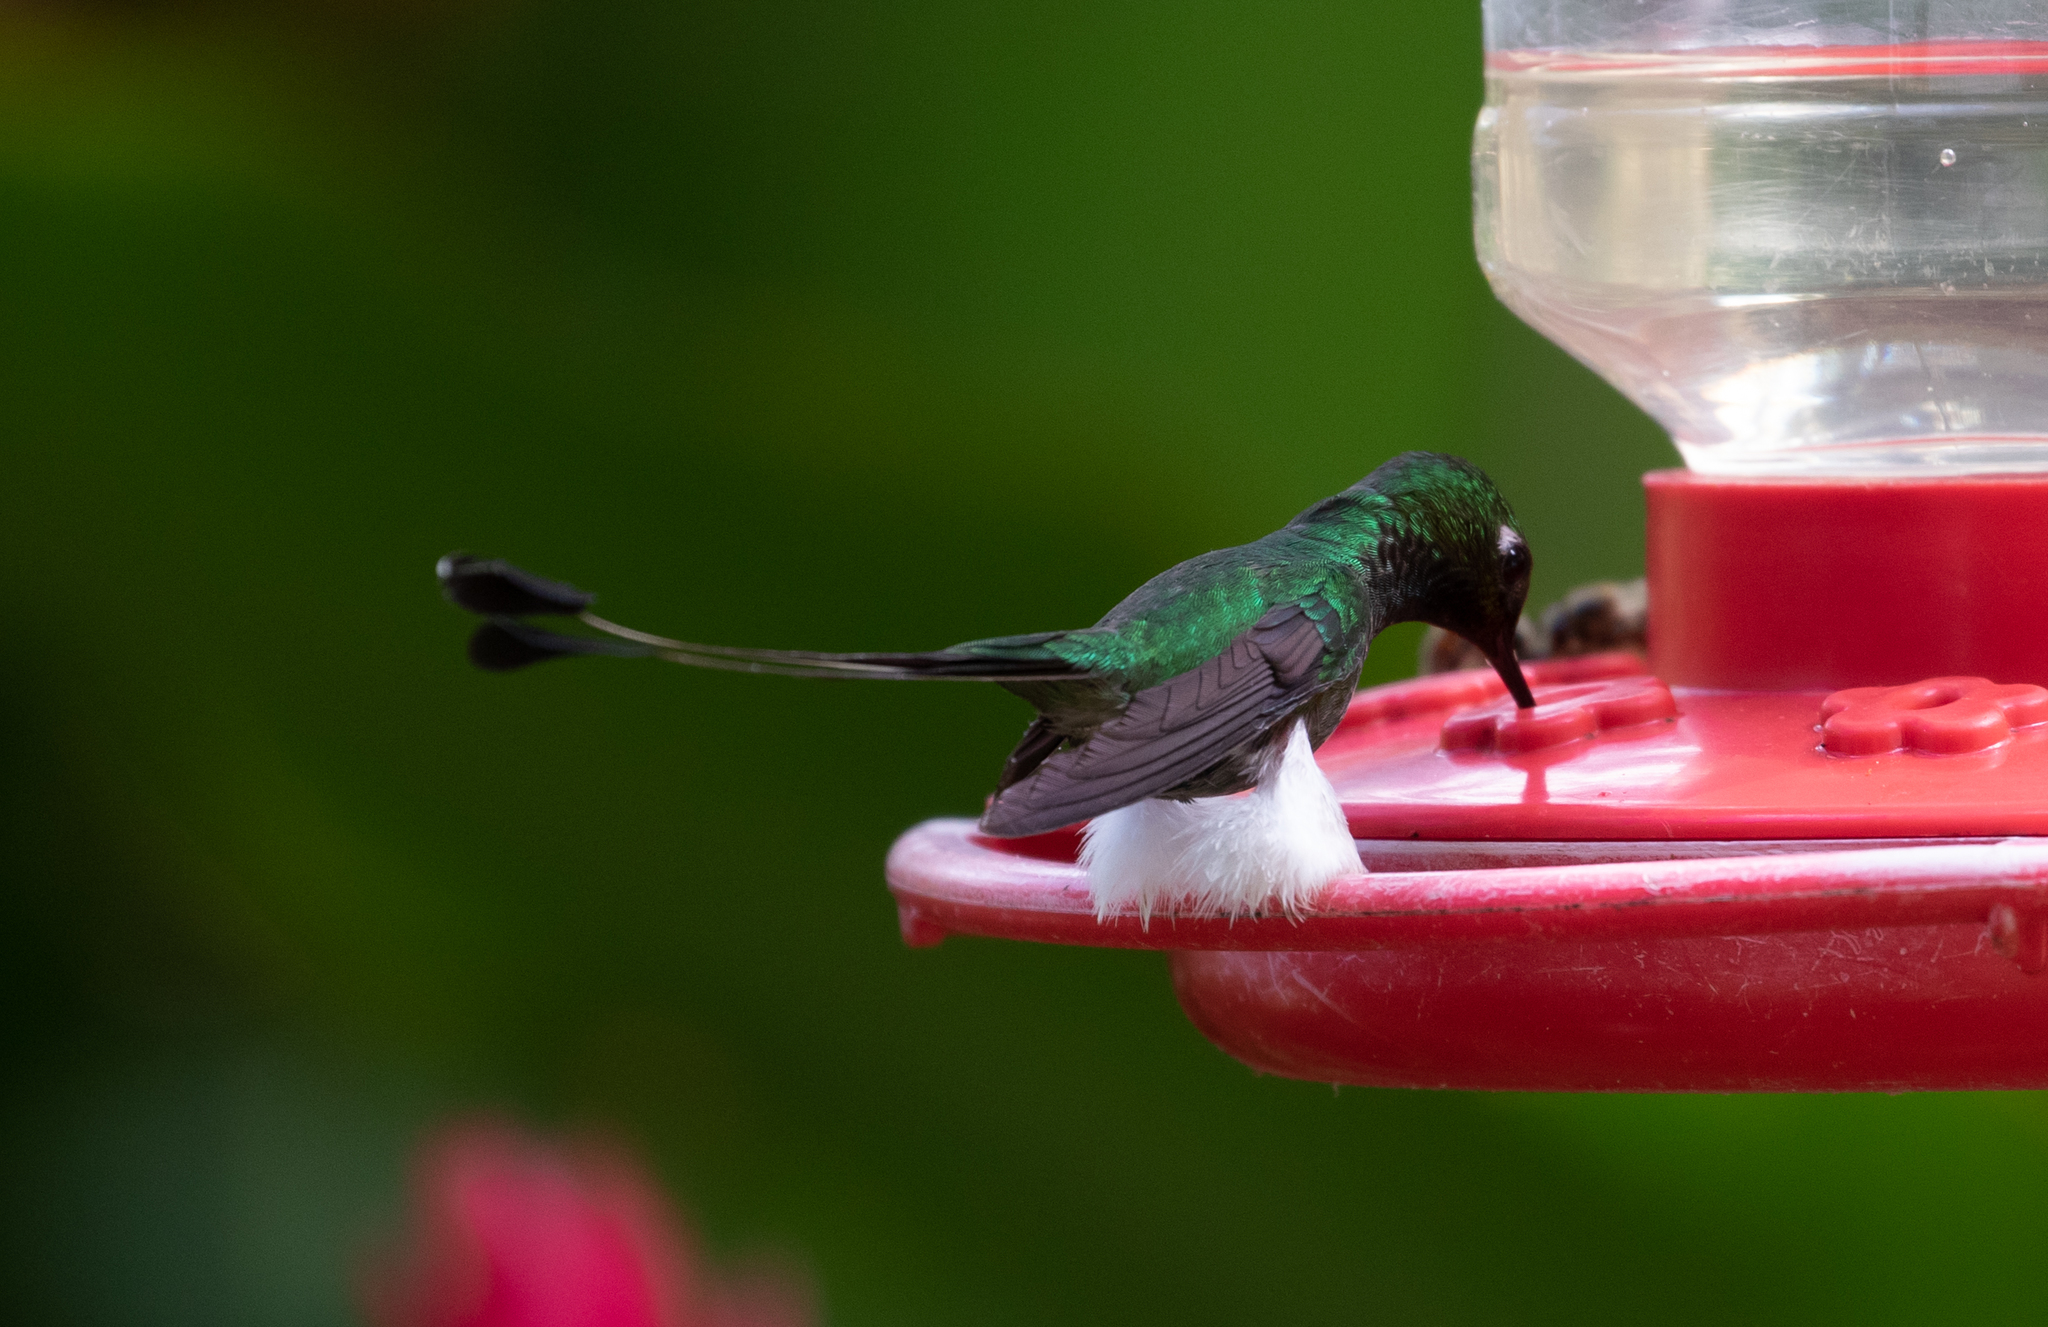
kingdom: Animalia
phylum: Chordata
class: Aves
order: Apodiformes
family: Trochilidae
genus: Ocreatus
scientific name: Ocreatus underwoodii
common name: Booted racket-tail
